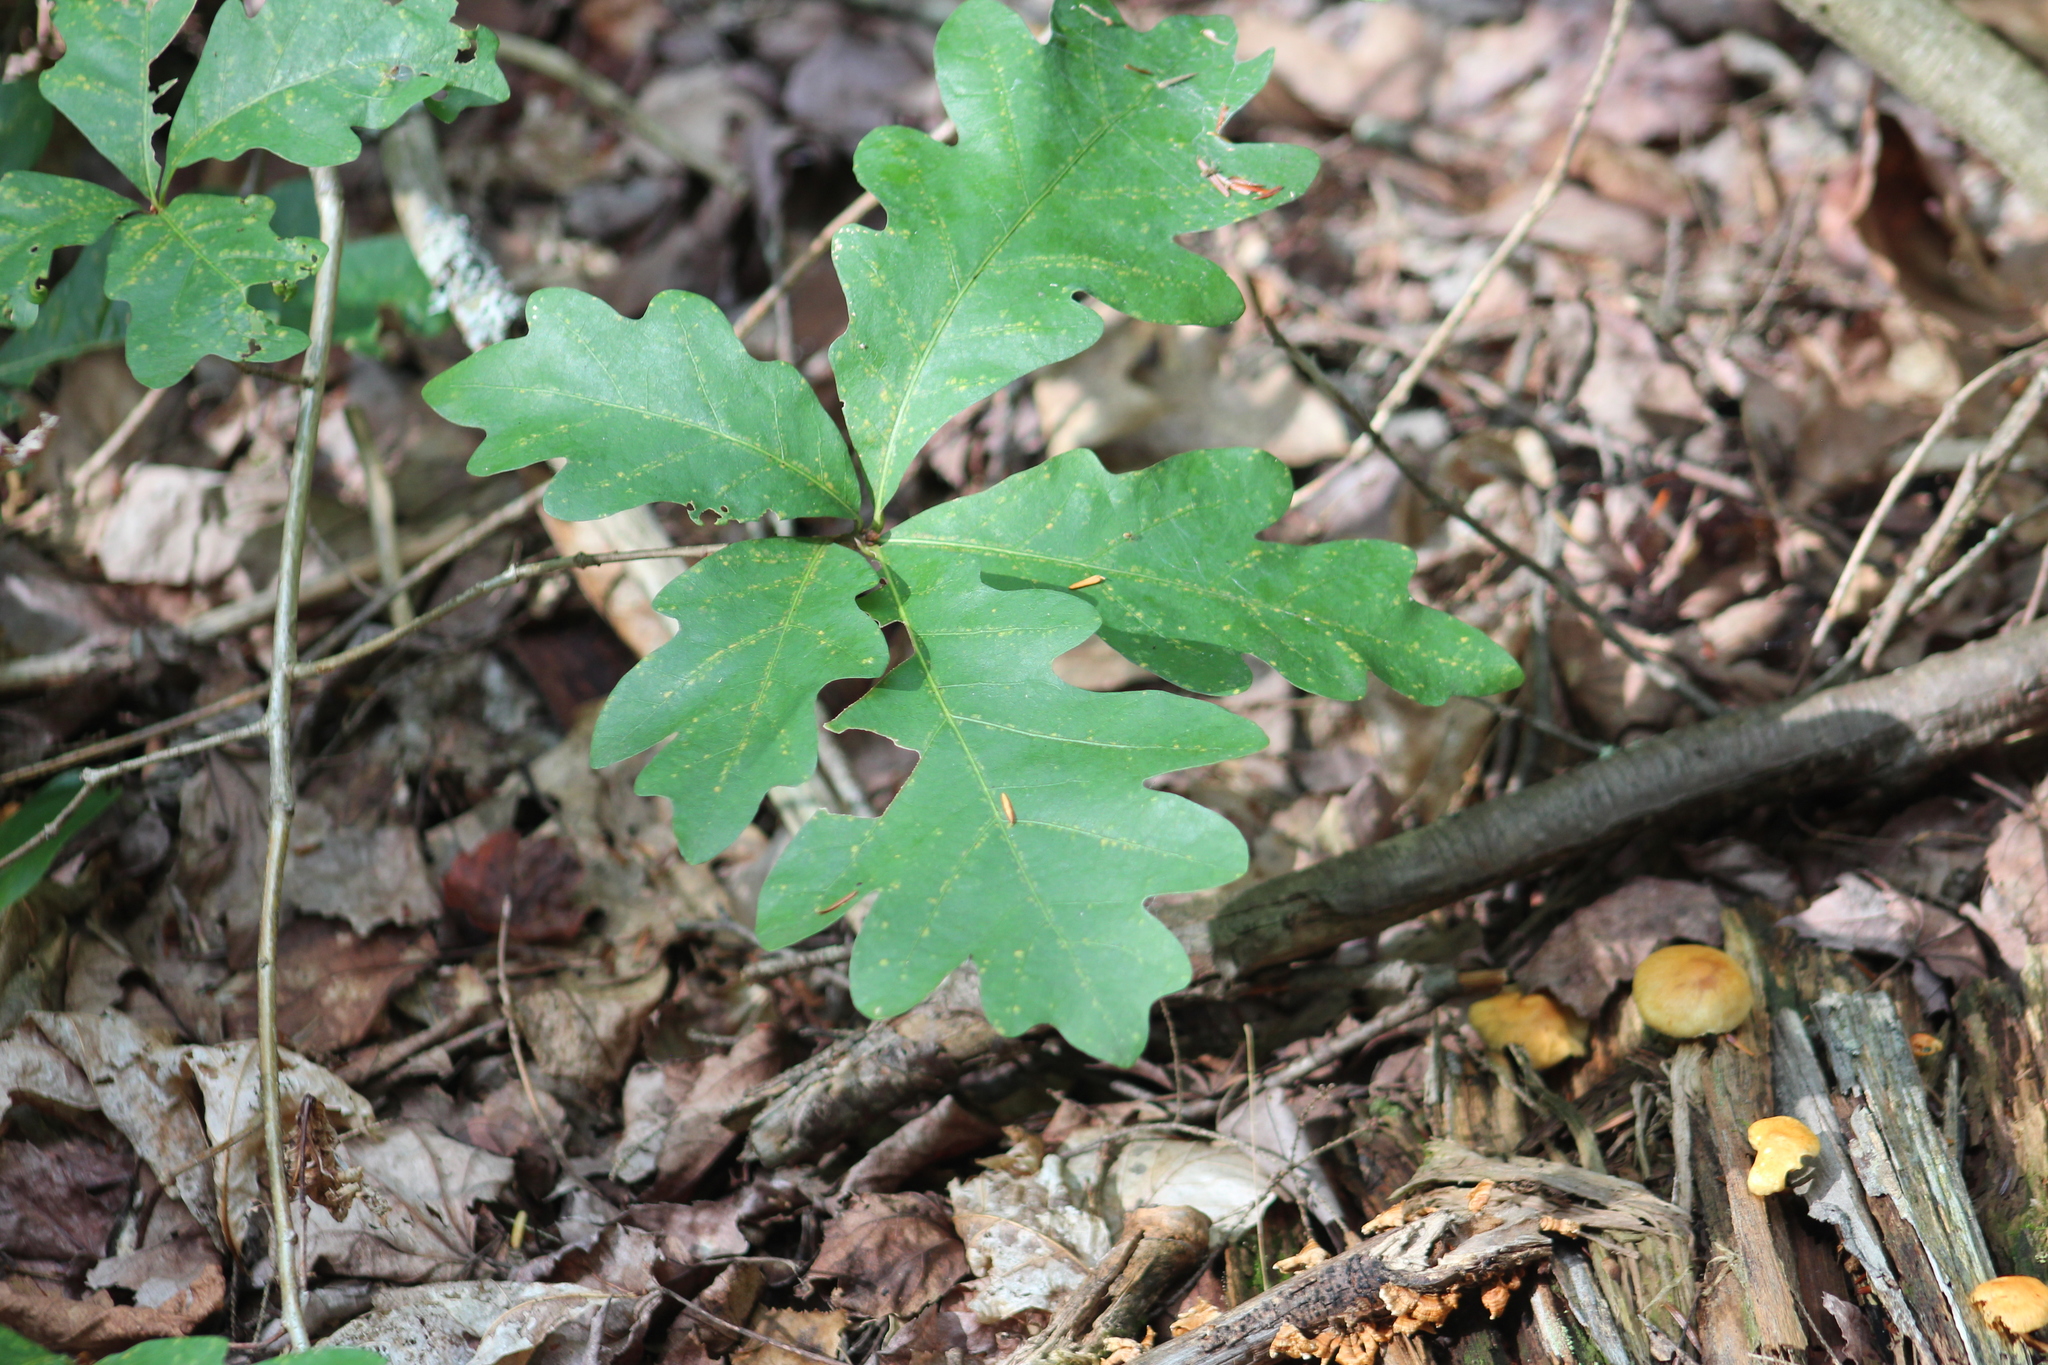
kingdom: Plantae
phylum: Tracheophyta
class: Magnoliopsida
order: Fagales
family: Fagaceae
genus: Quercus
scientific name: Quercus alba
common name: White oak
